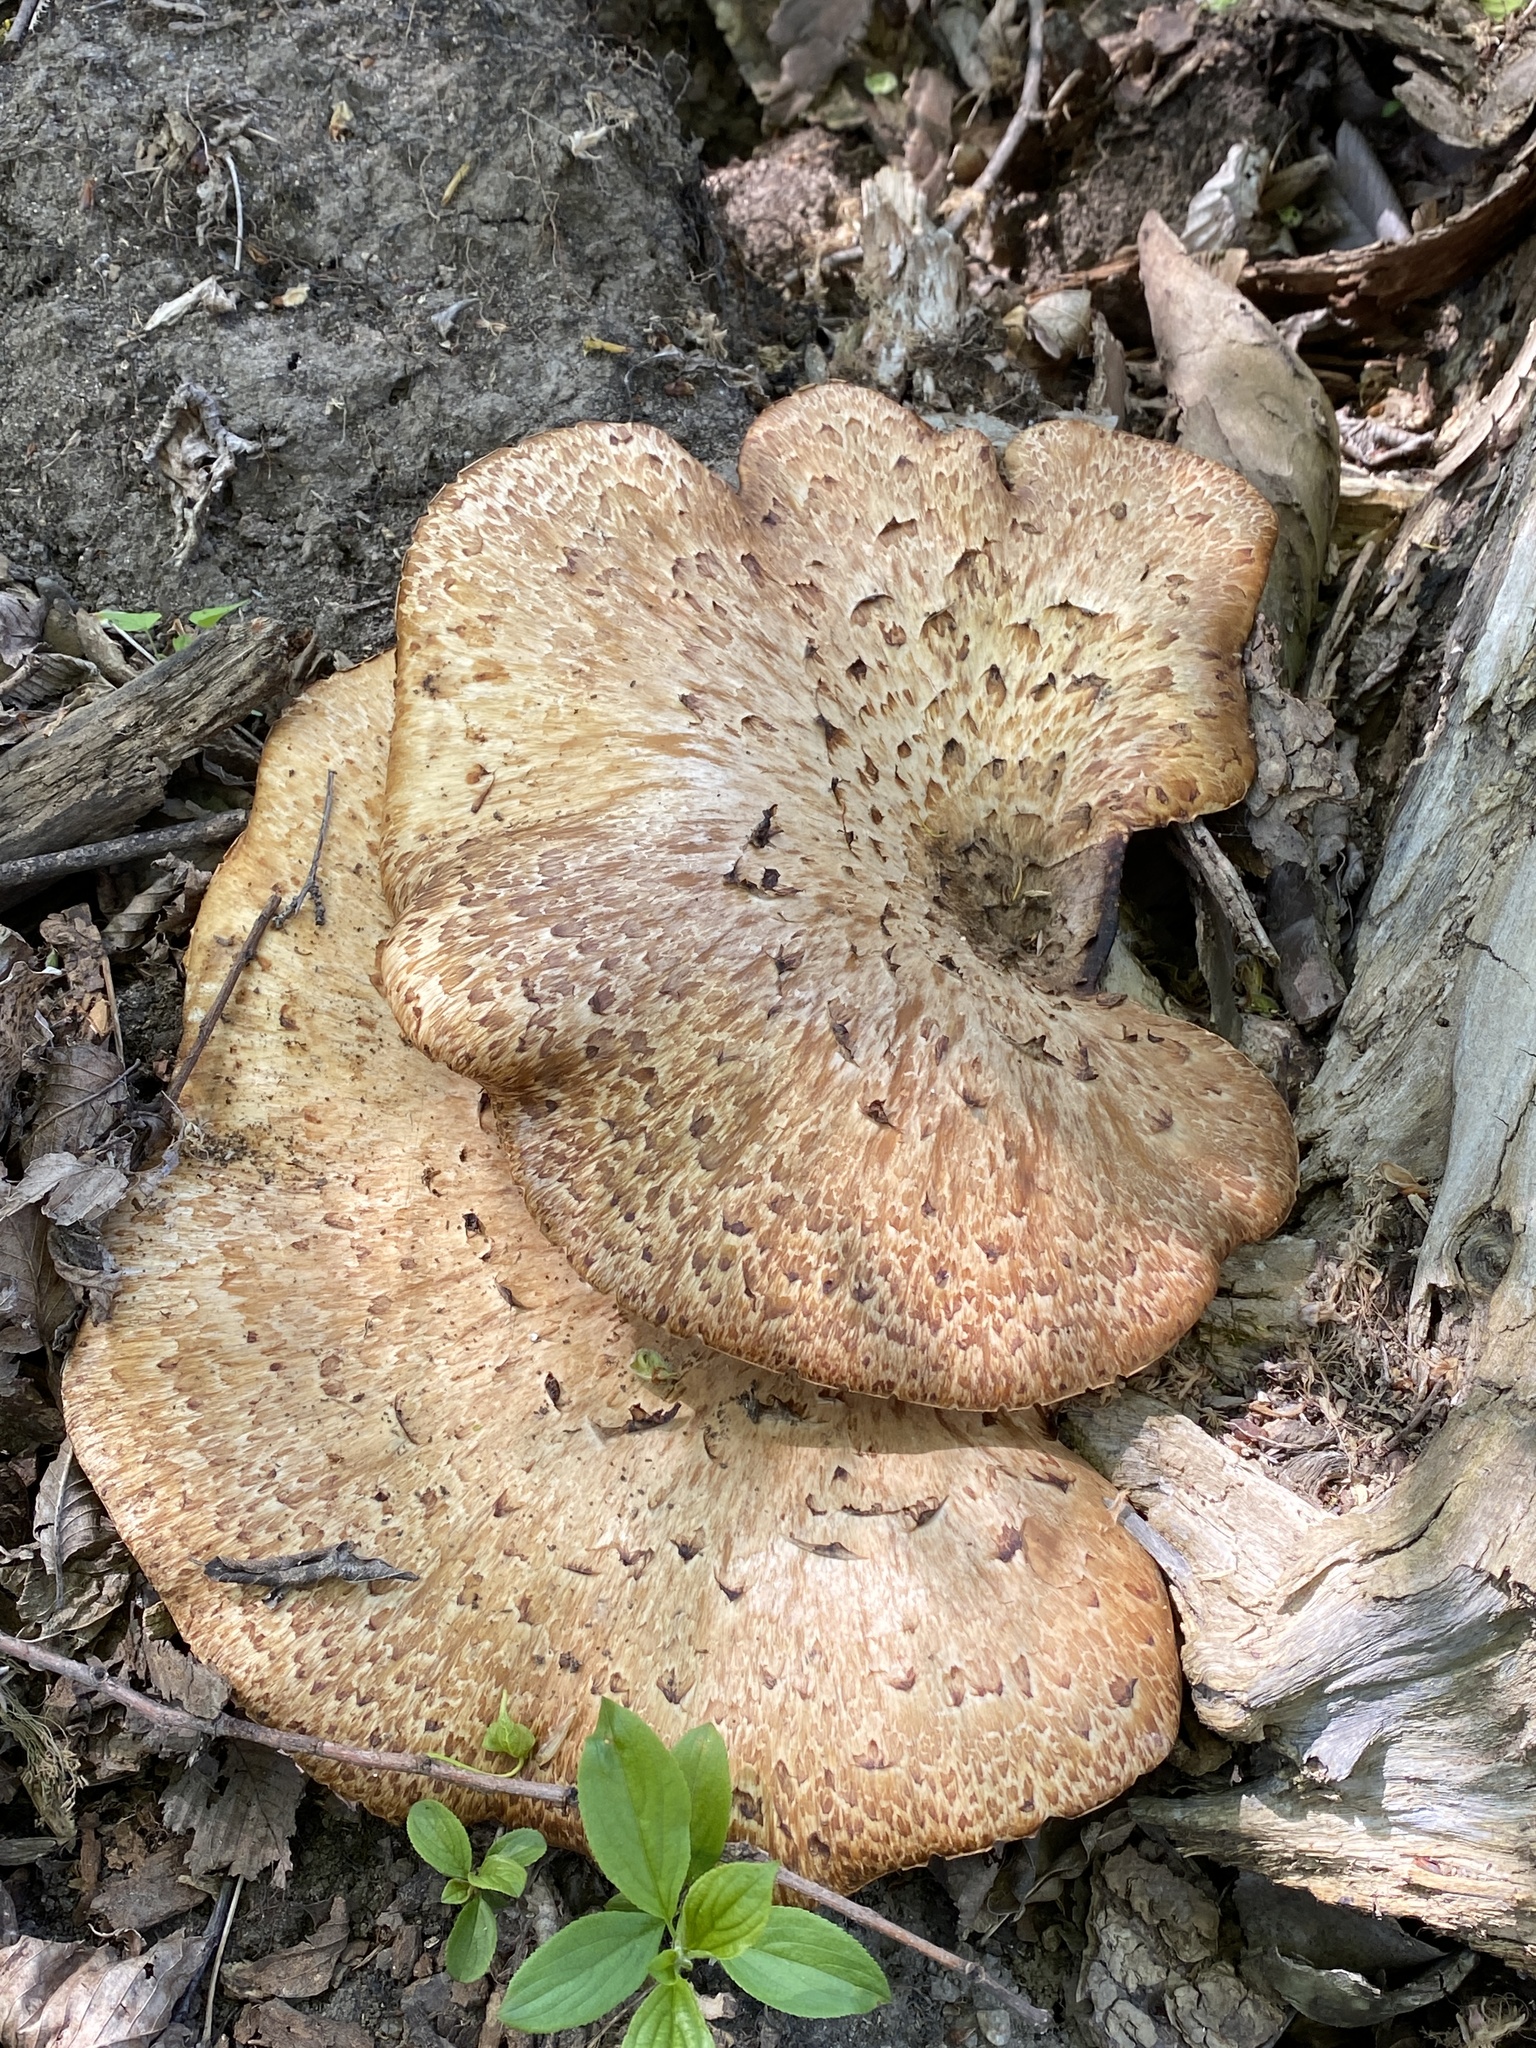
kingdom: Fungi
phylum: Basidiomycota
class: Agaricomycetes
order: Polyporales
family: Polyporaceae
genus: Cerioporus
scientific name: Cerioporus squamosus
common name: Dryad's saddle
